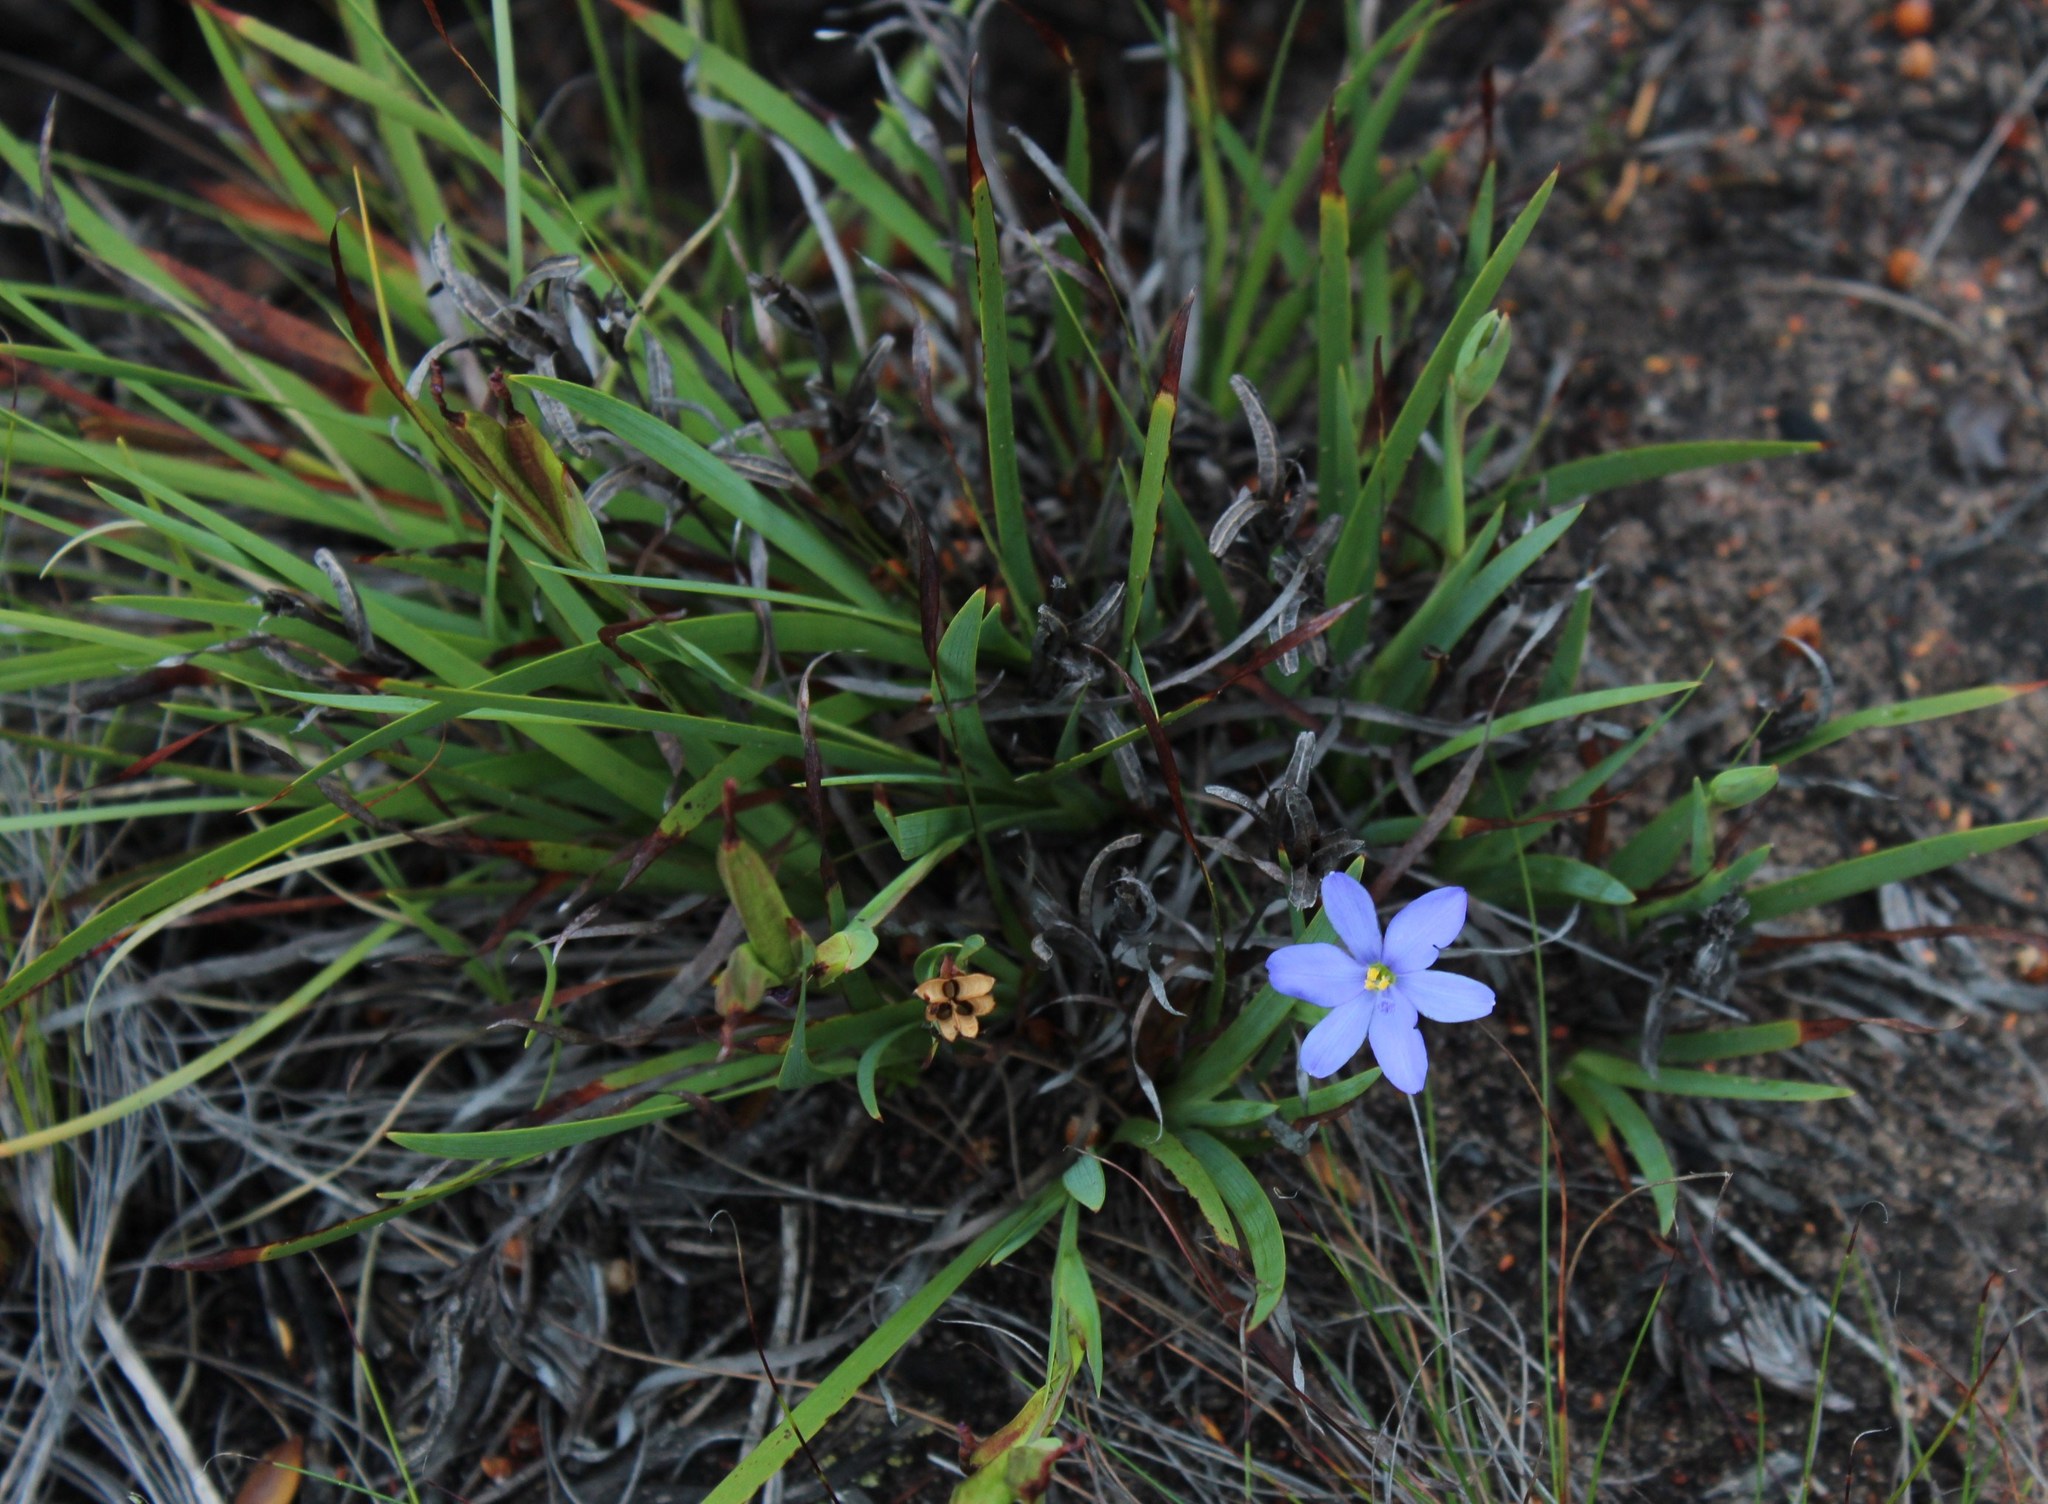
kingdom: Plantae
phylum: Tracheophyta
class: Liliopsida
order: Asparagales
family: Iridaceae
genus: Aristea
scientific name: Aristea ensifolia
